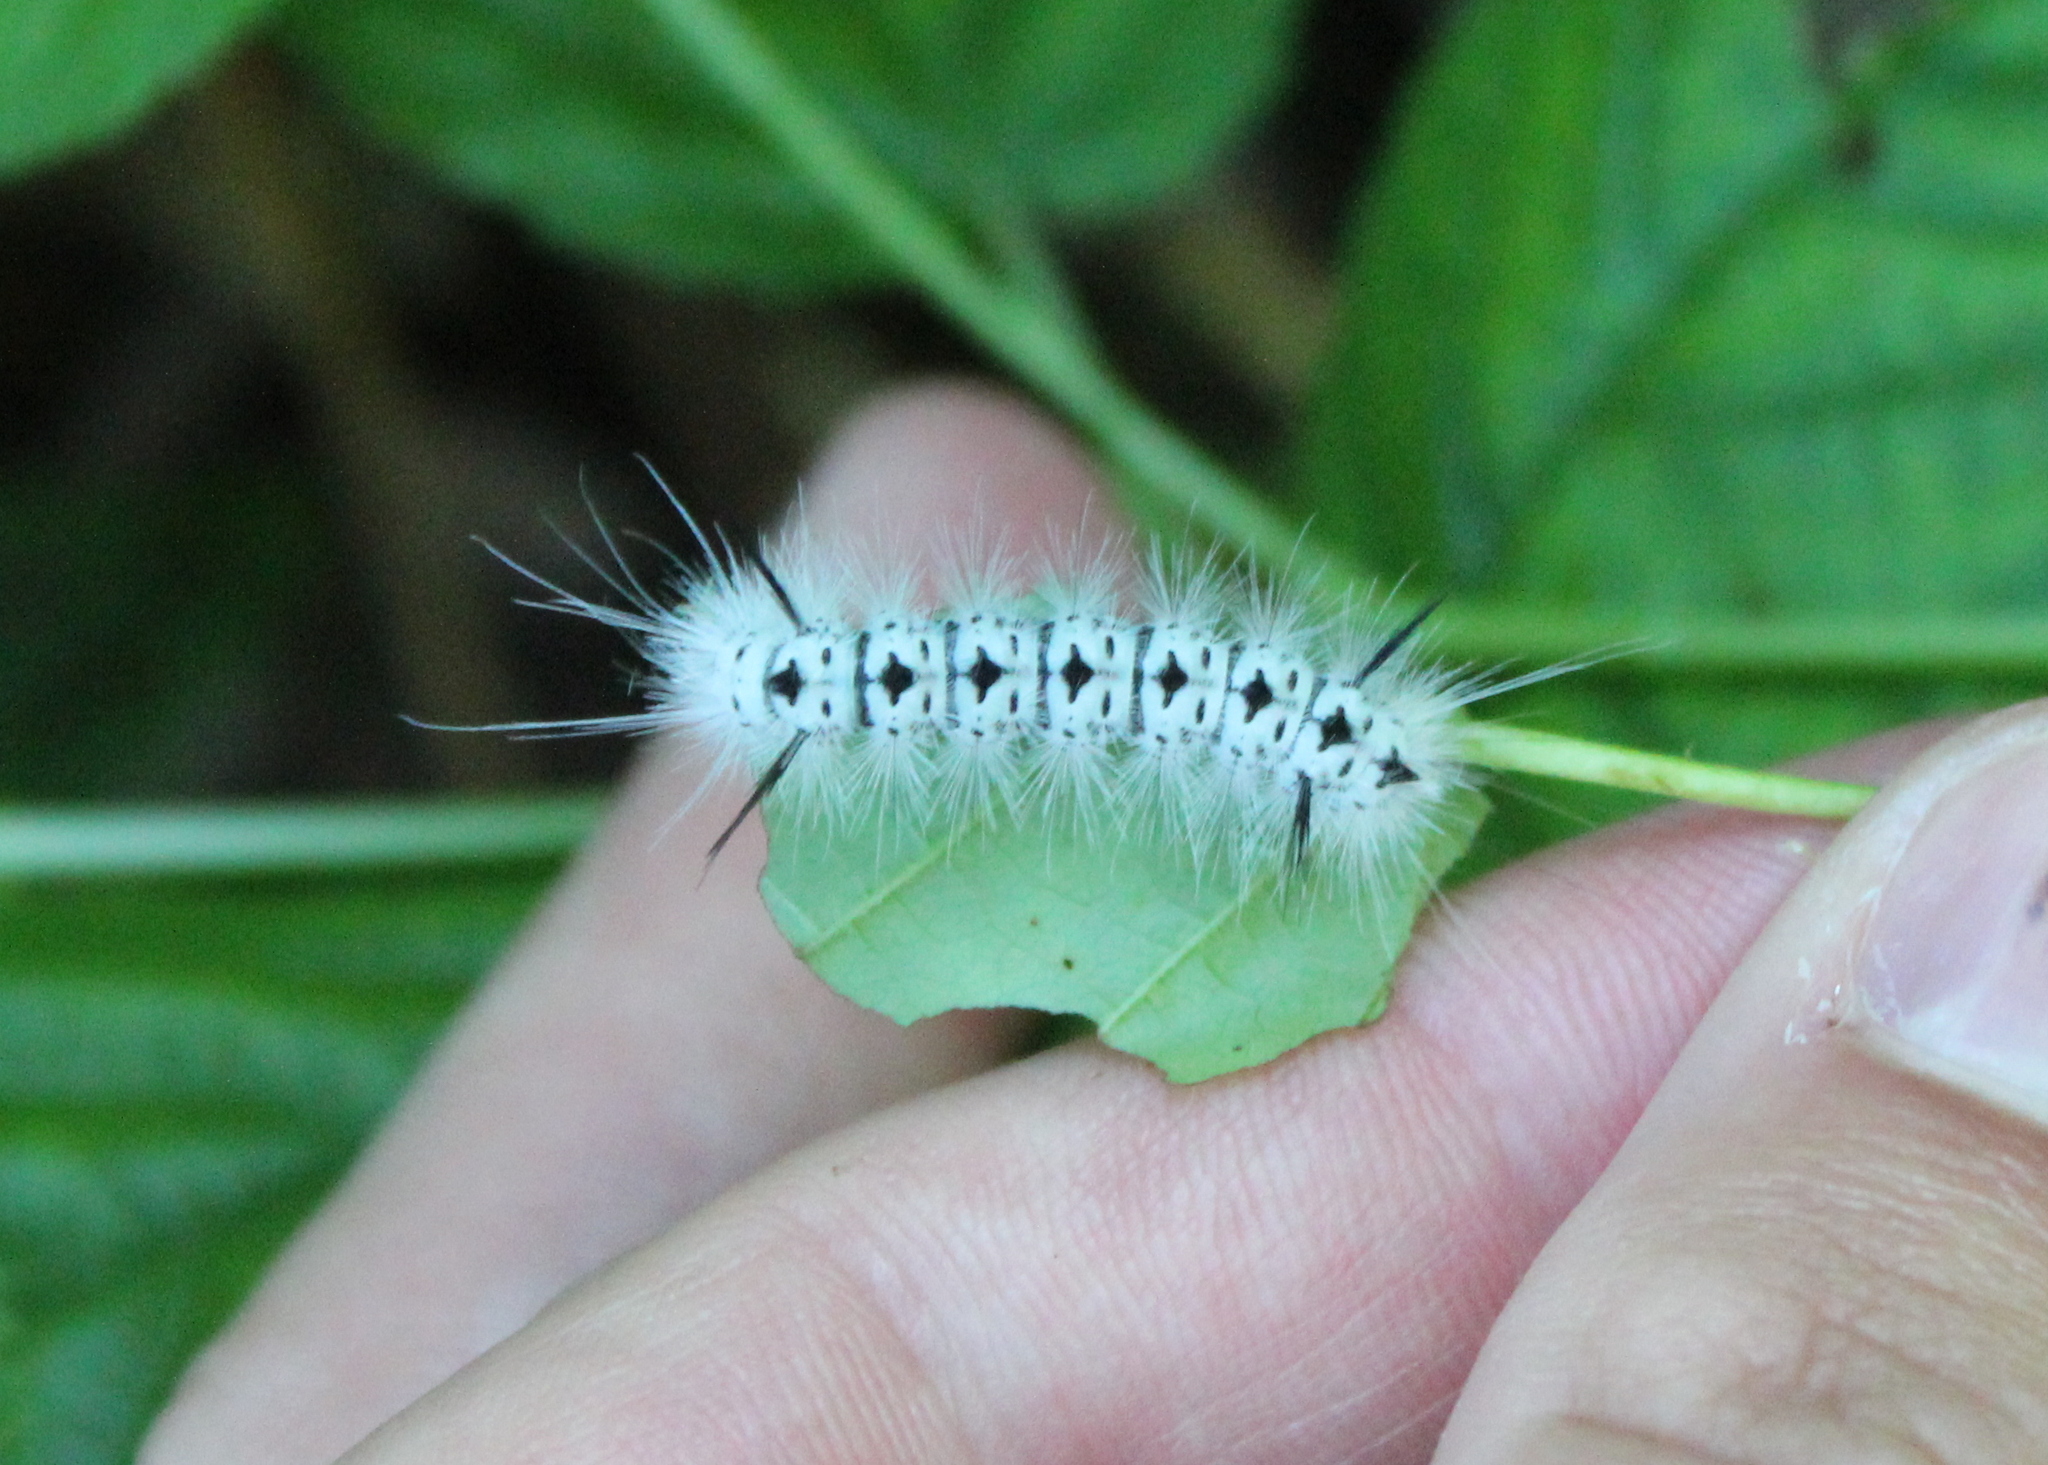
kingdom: Animalia
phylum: Arthropoda
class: Insecta
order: Lepidoptera
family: Erebidae
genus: Lophocampa
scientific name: Lophocampa caryae
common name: Hickory tussock moth
